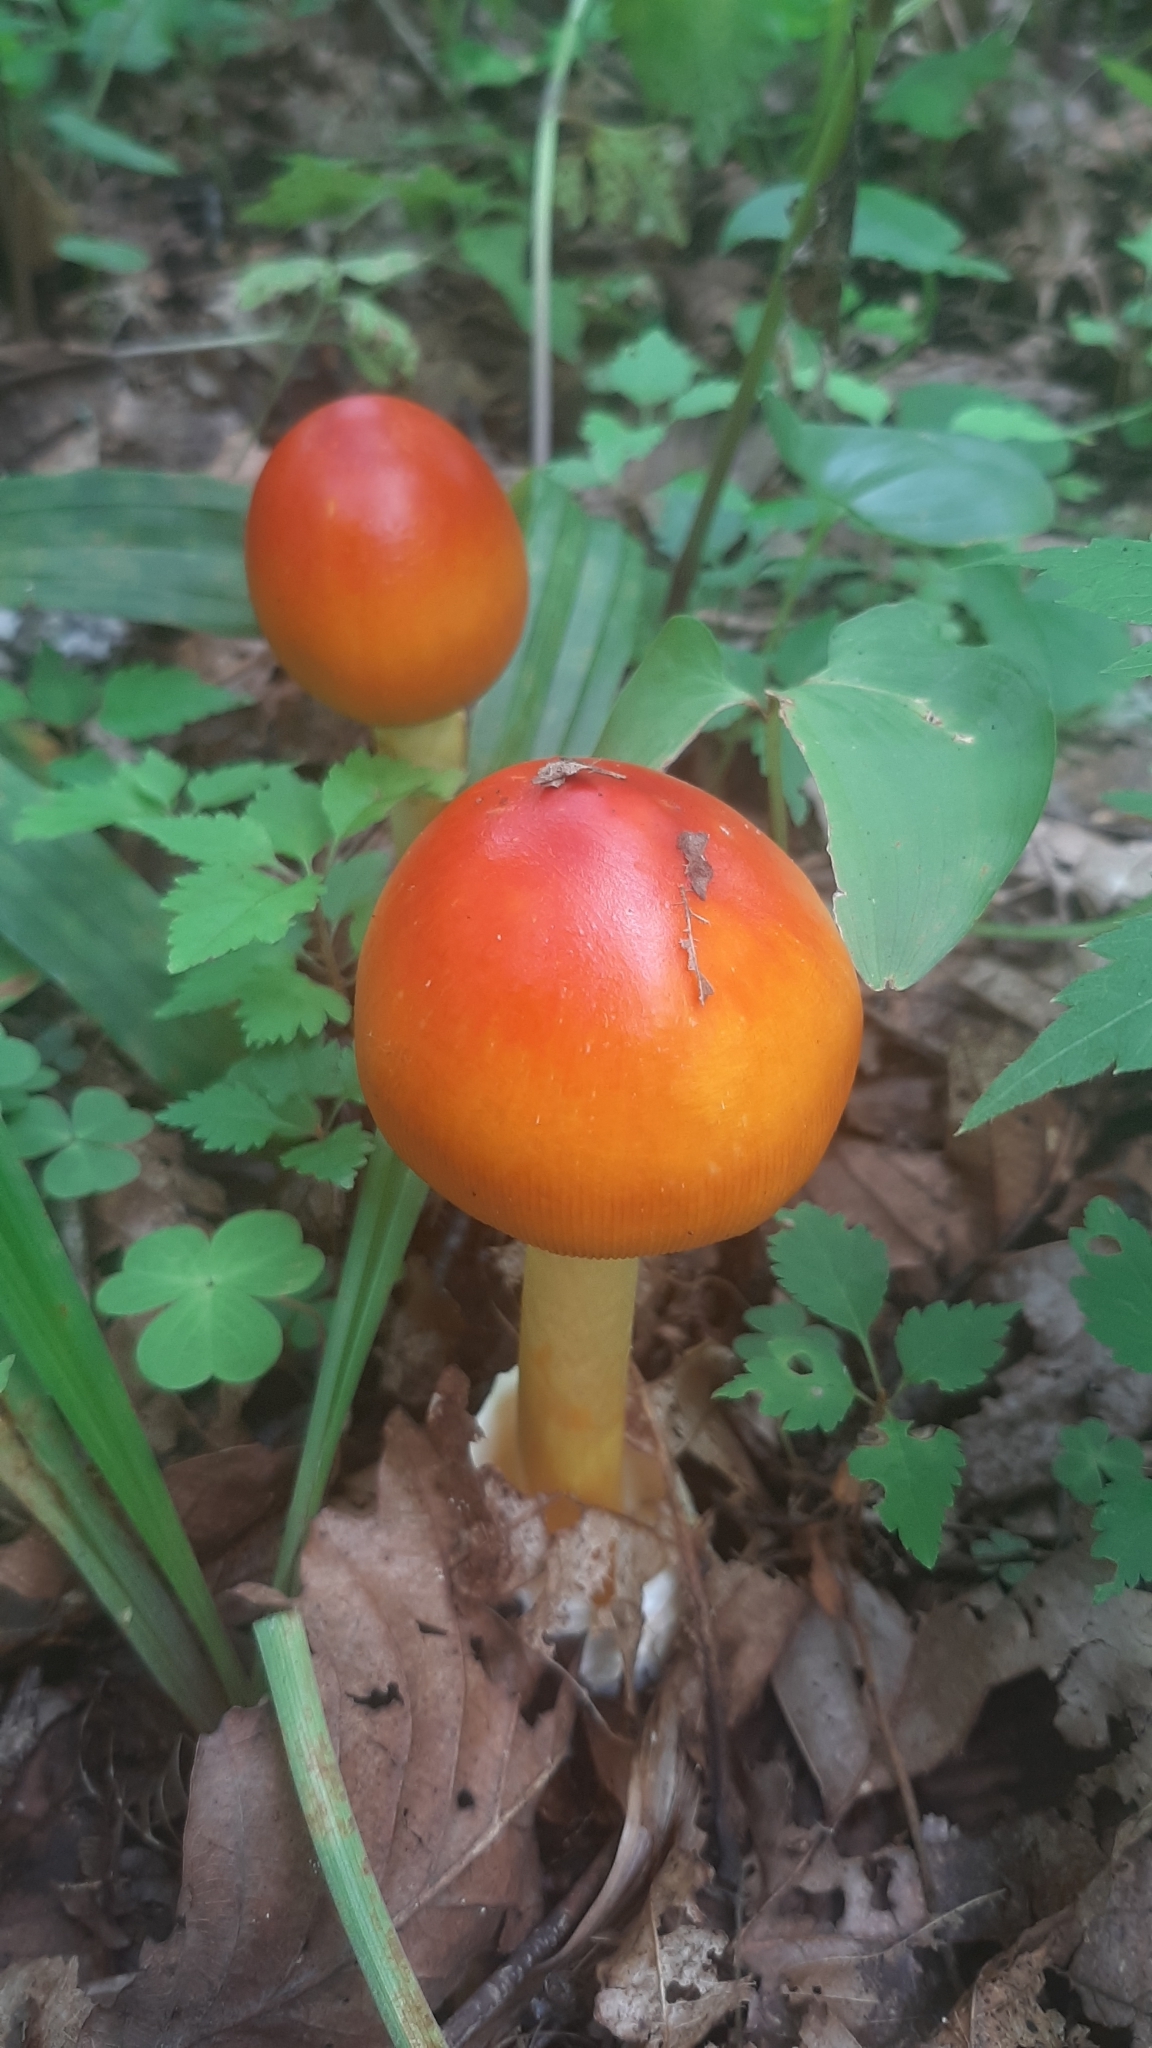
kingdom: Fungi
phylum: Basidiomycota
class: Agaricomycetes
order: Agaricales
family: Amanitaceae
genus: Amanita
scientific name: Amanita caesareoides
